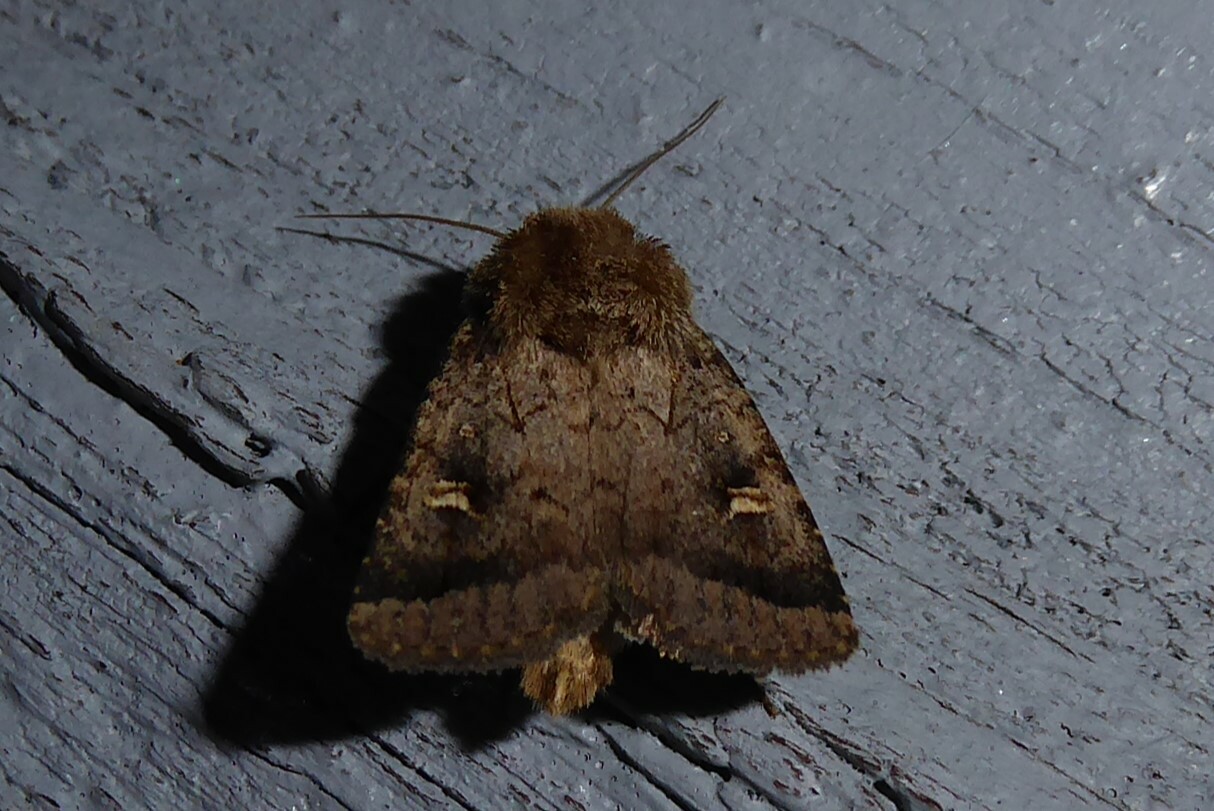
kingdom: Animalia
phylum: Arthropoda
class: Insecta
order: Lepidoptera
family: Noctuidae
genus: Proteuxoa
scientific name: Proteuxoa tetronycha
